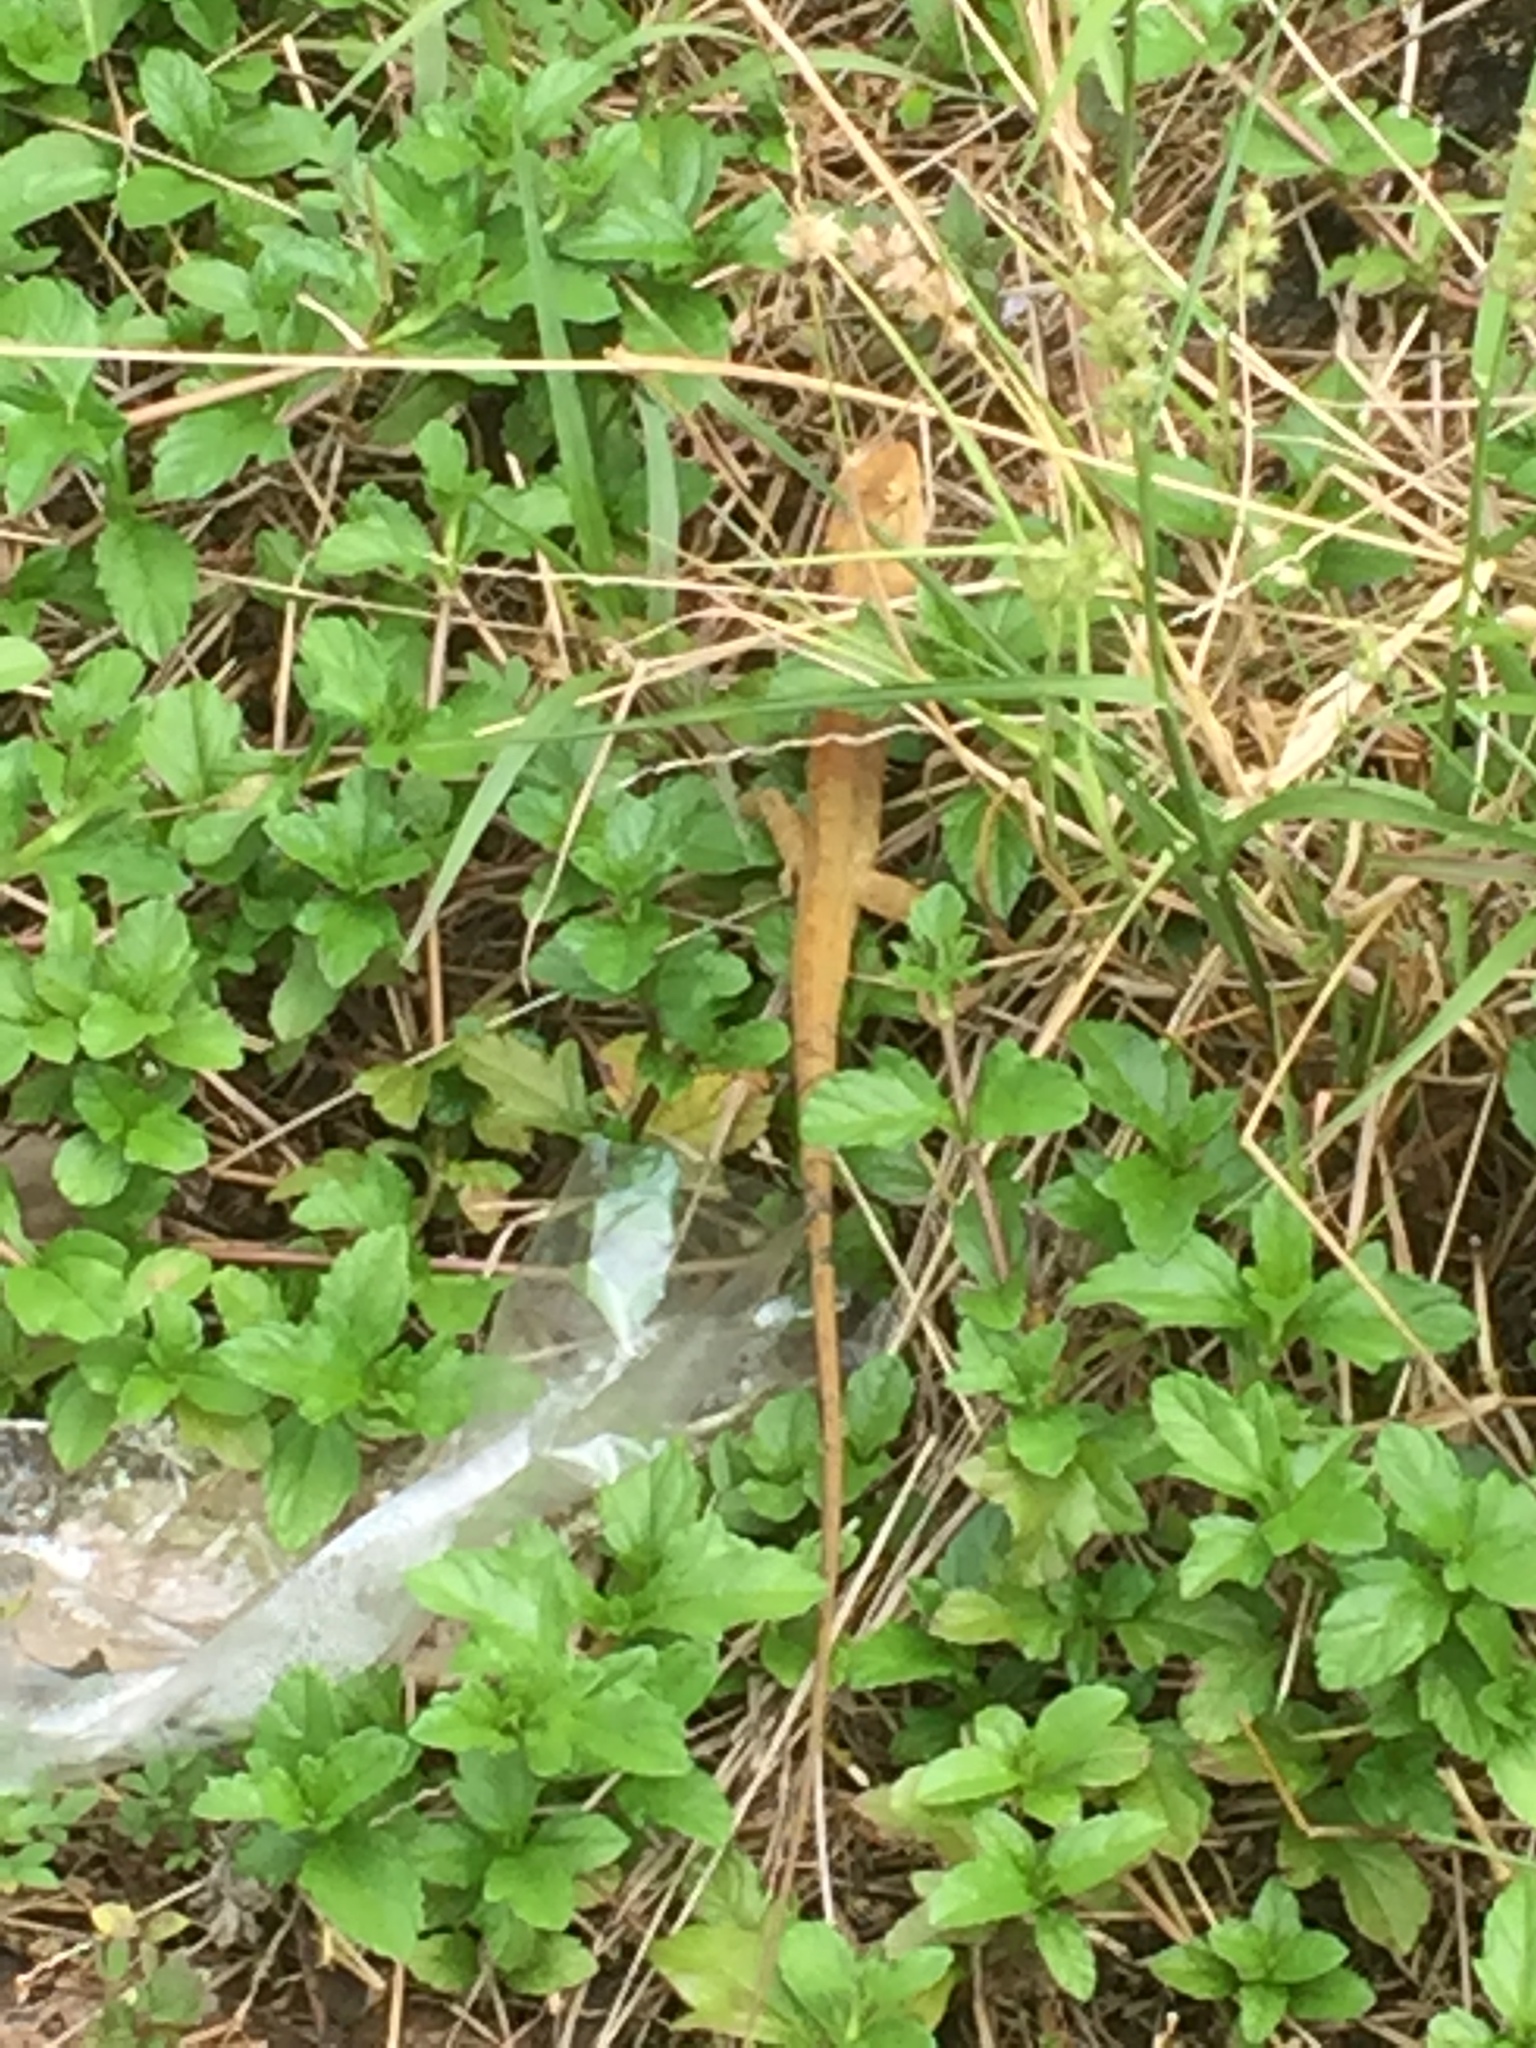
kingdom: Animalia
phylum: Chordata
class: Squamata
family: Agamidae
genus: Calotes
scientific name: Calotes versicolor
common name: Oriental garden lizard
